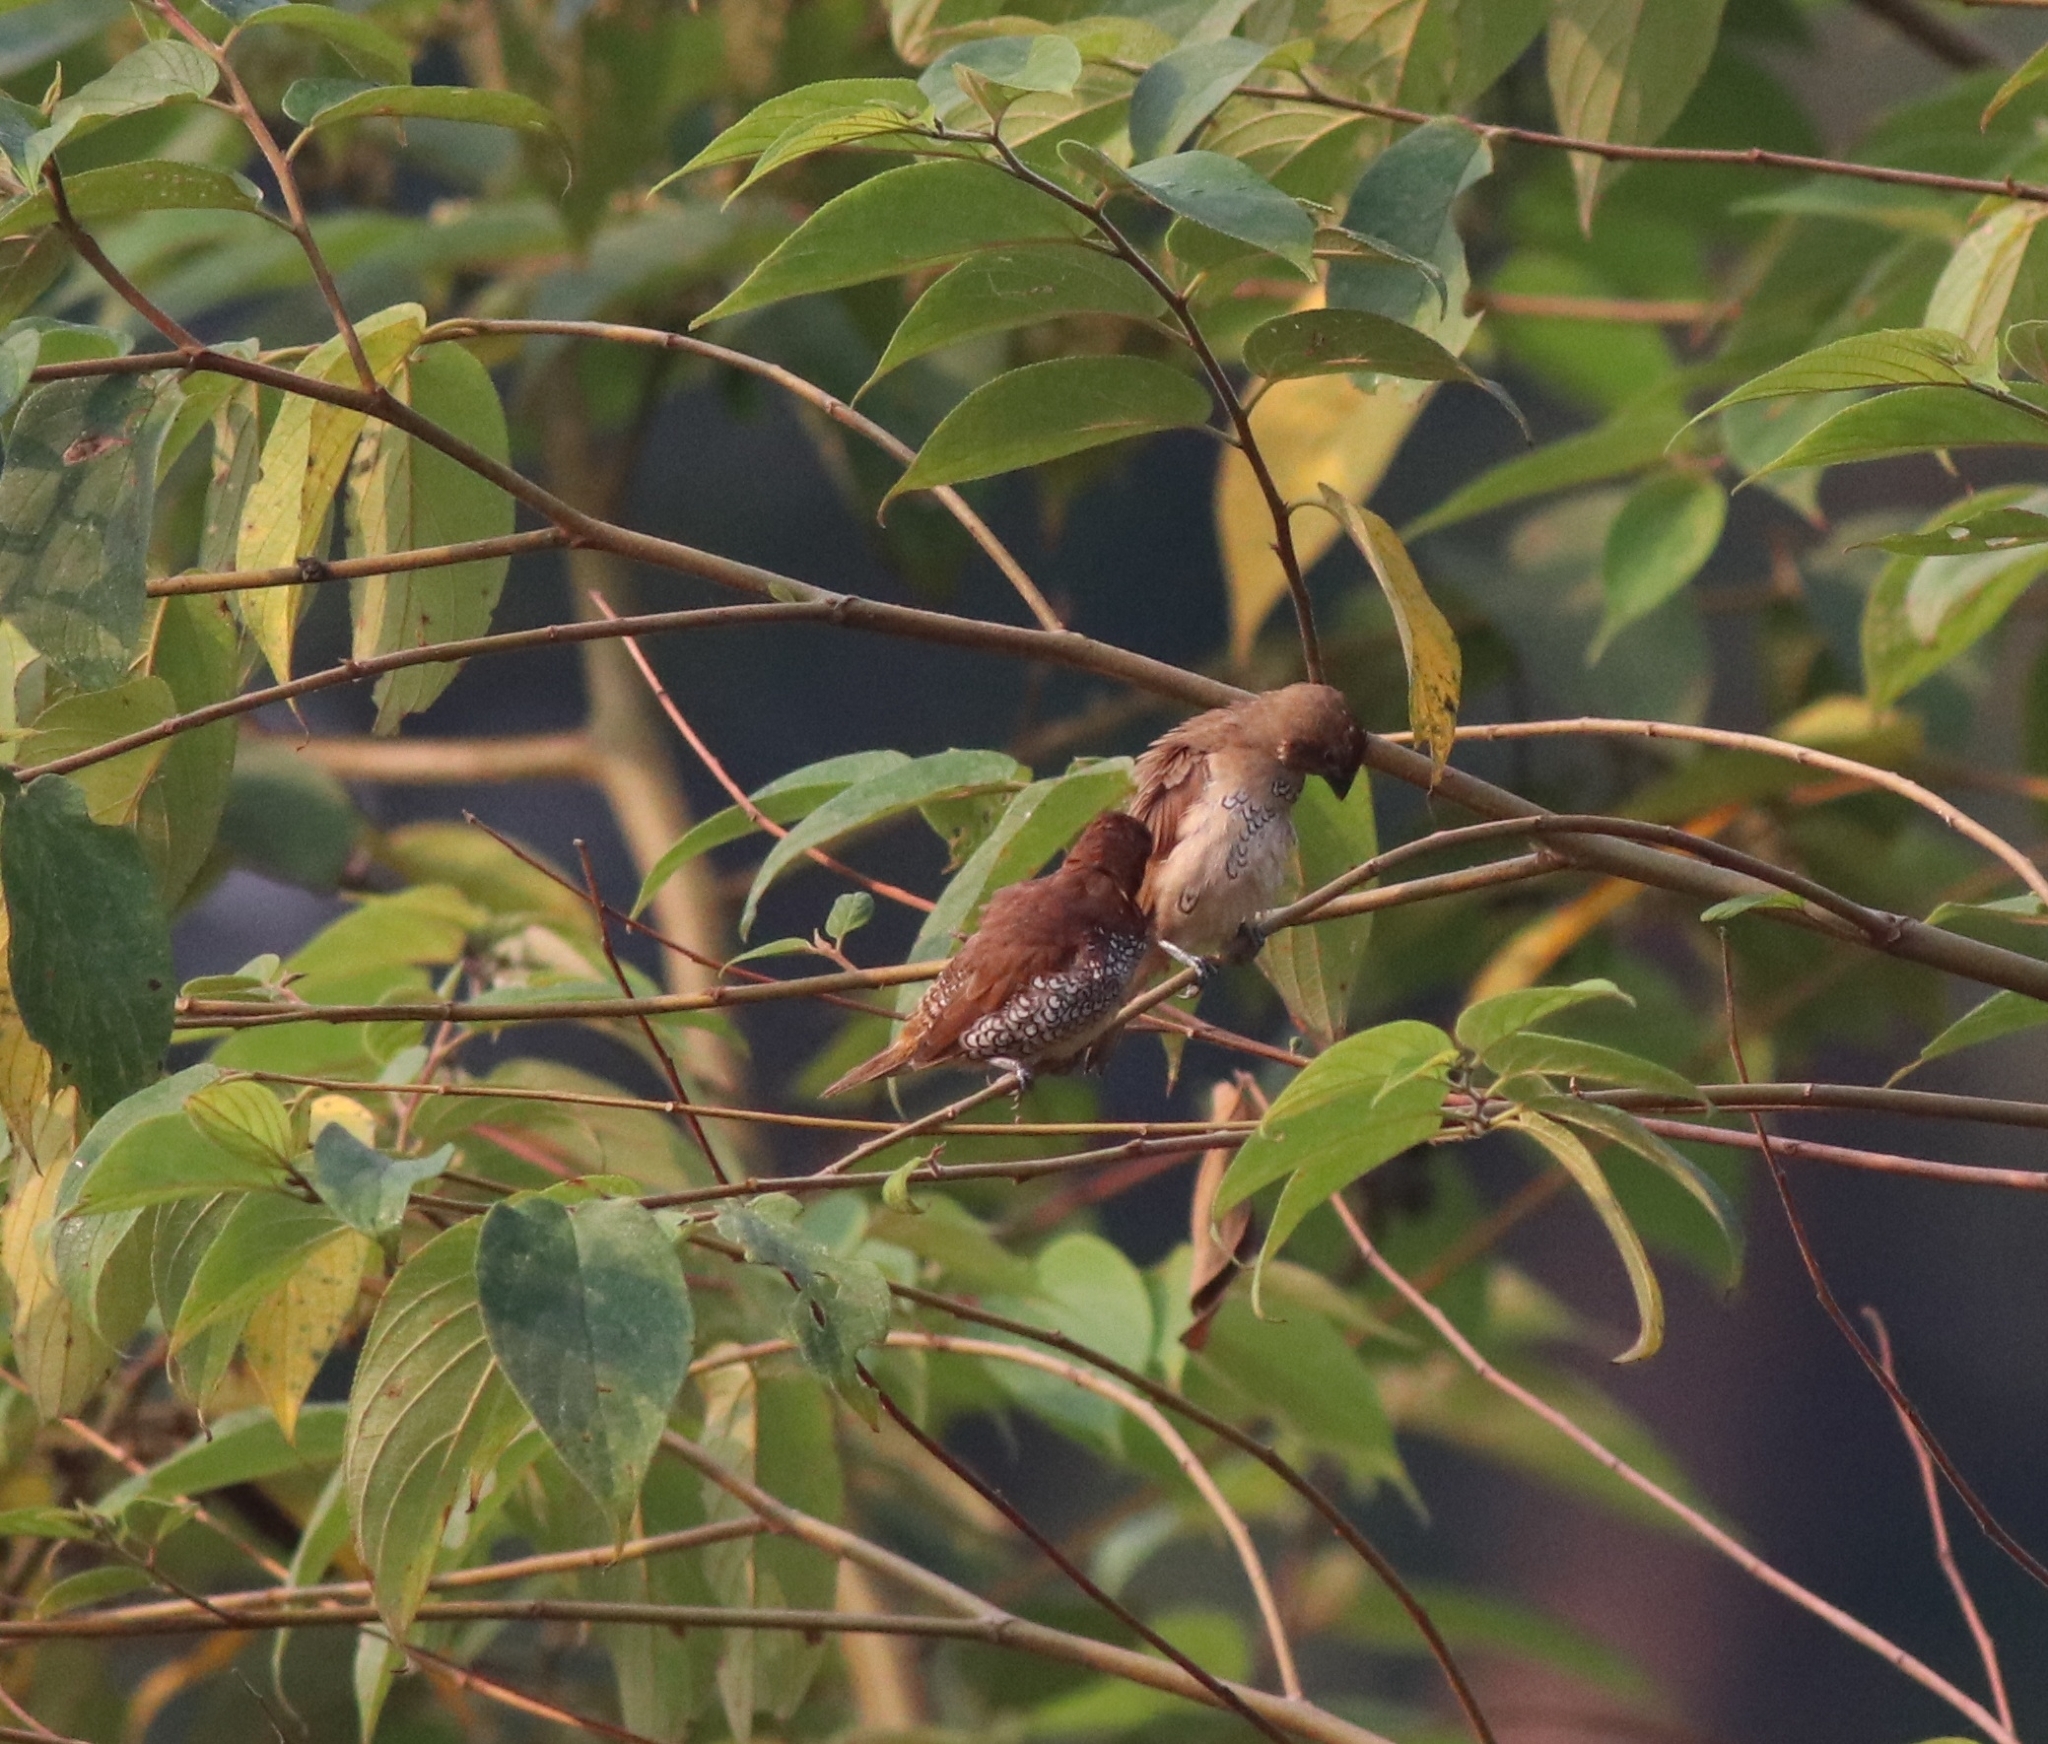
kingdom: Animalia
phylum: Chordata
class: Aves
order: Passeriformes
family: Estrildidae
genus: Lonchura
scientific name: Lonchura punctulata
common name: Scaly-breasted munia
